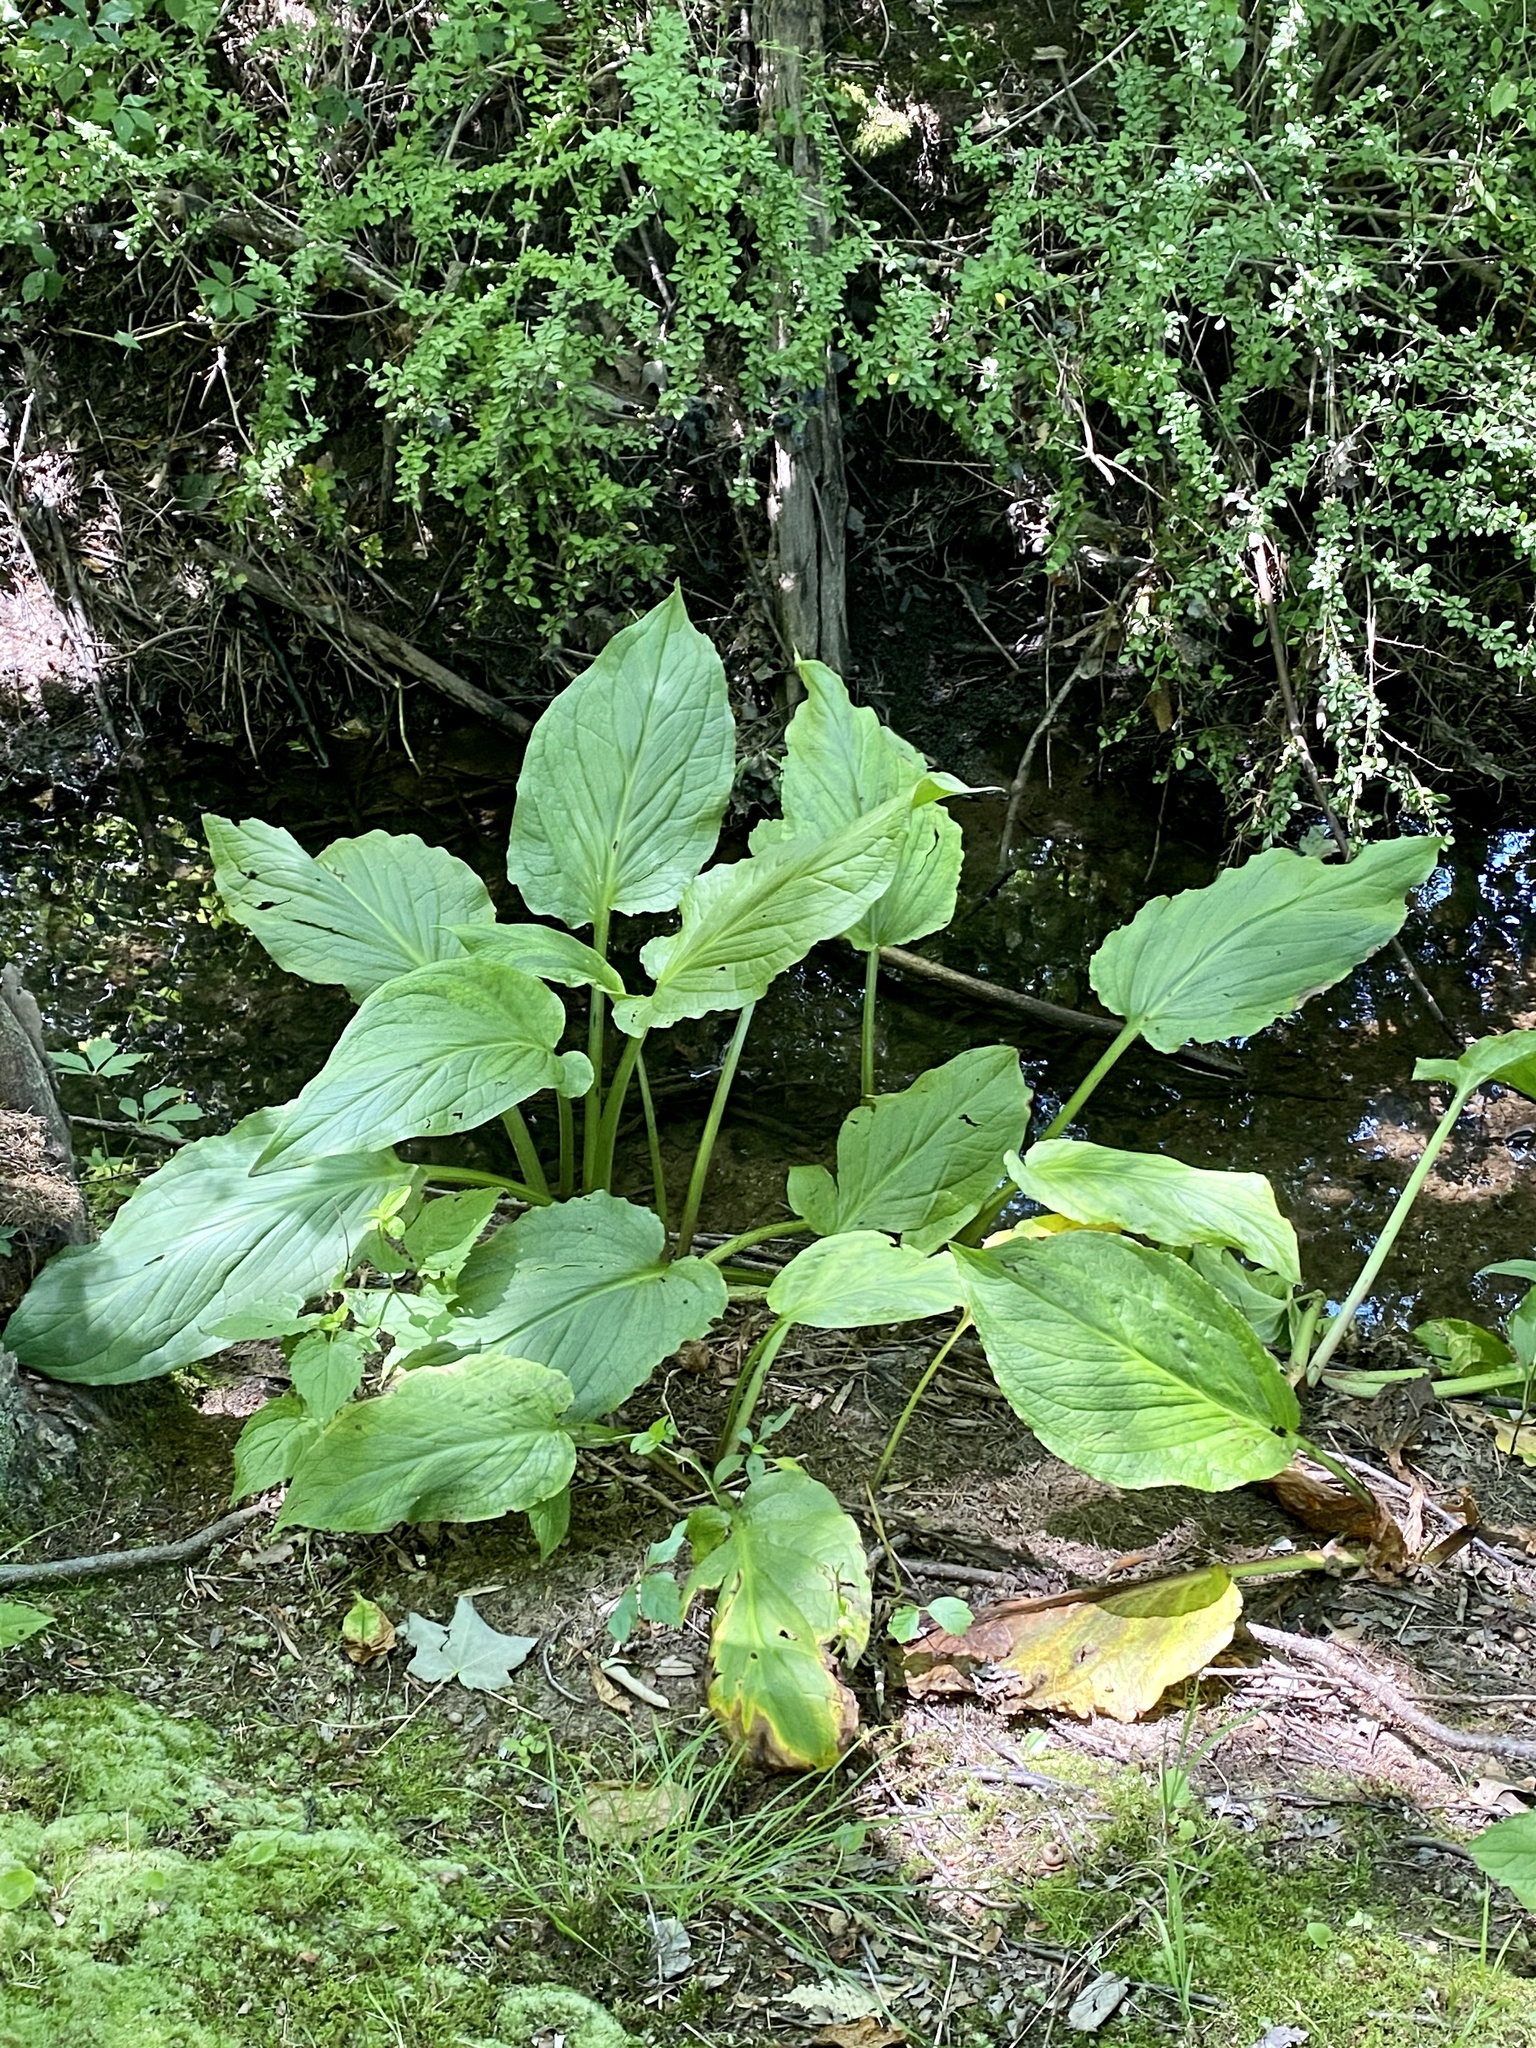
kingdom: Plantae
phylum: Tracheophyta
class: Liliopsida
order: Alismatales
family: Araceae
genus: Symplocarpus
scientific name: Symplocarpus foetidus
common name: Eastern skunk cabbage
